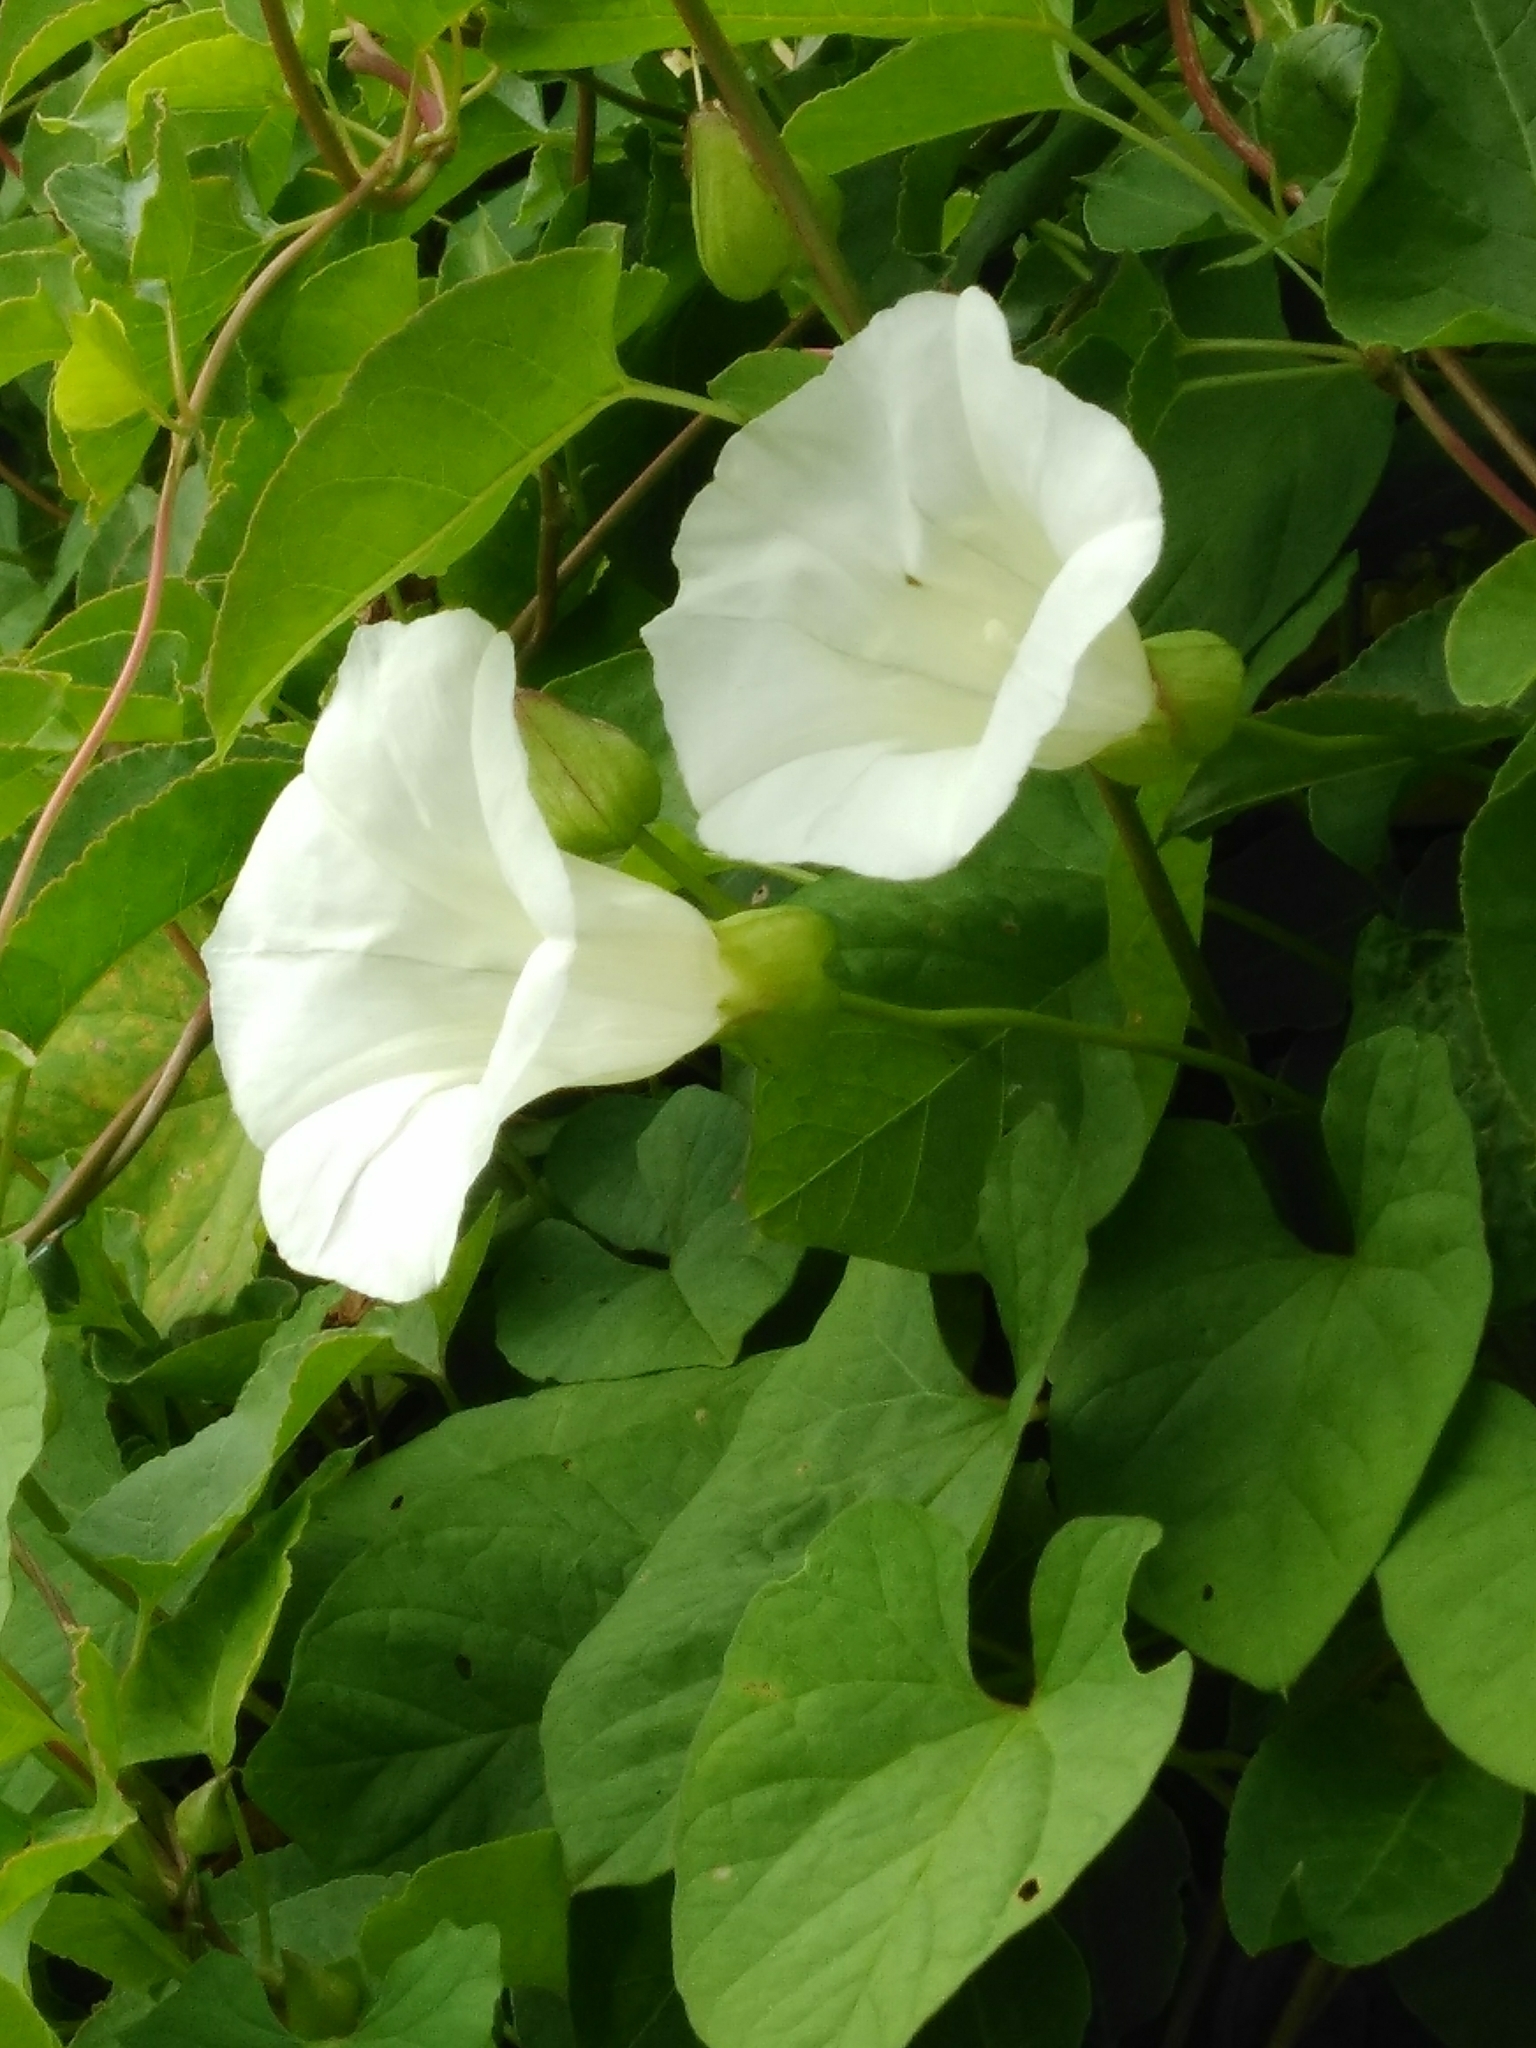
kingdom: Plantae
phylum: Tracheophyta
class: Magnoliopsida
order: Solanales
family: Convolvulaceae
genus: Calystegia
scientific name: Calystegia silvatica
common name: Large bindweed
